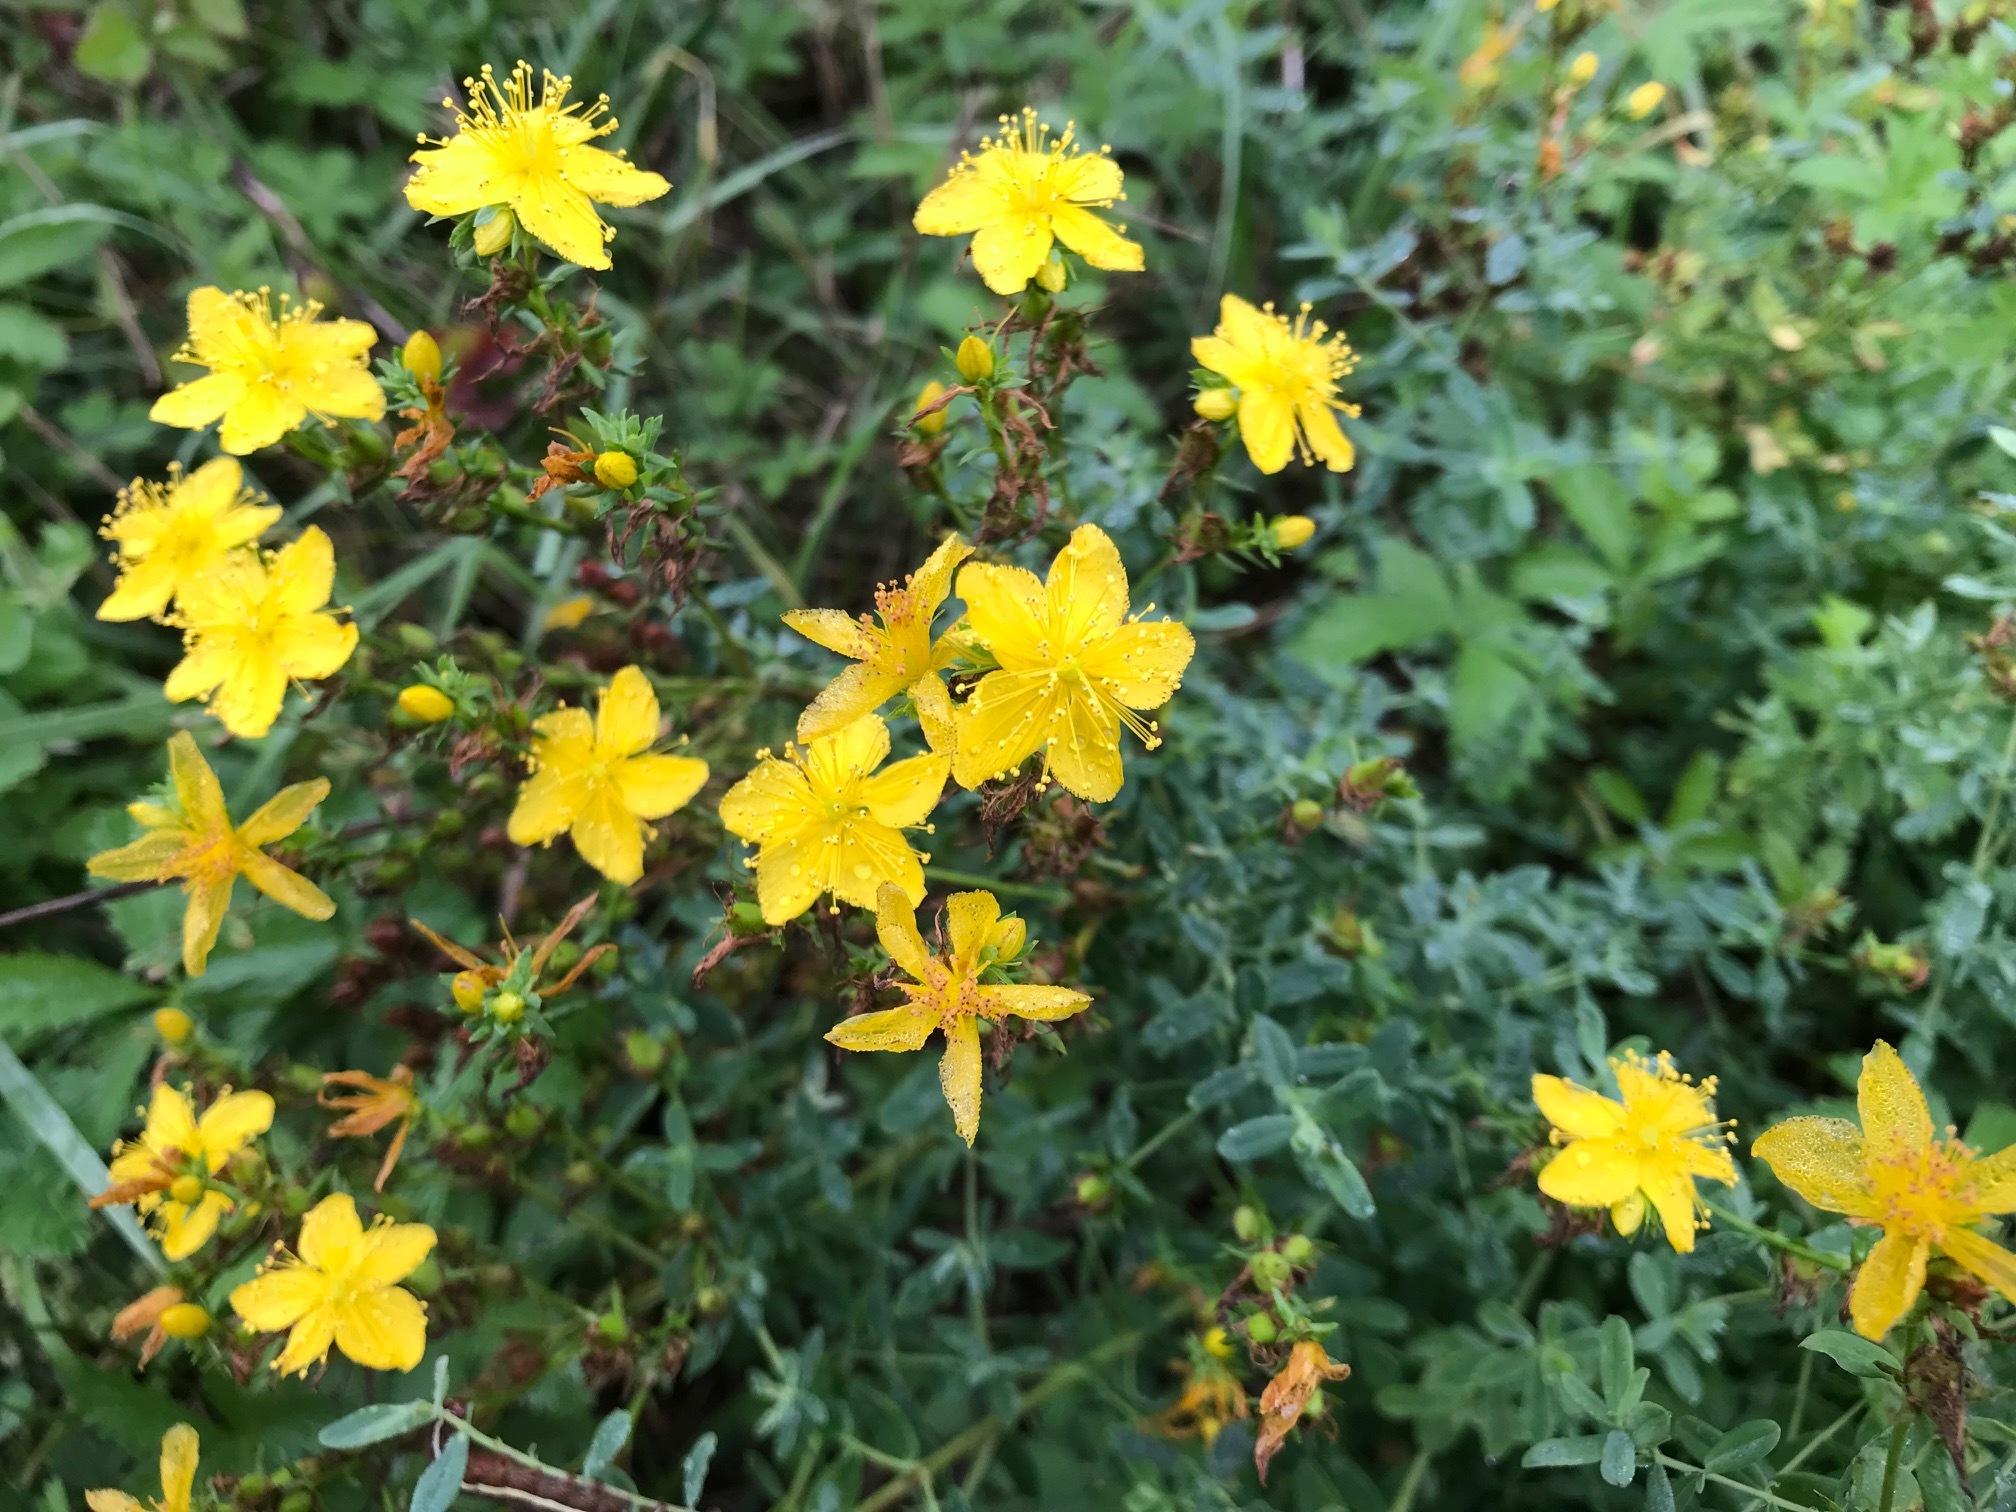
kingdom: Plantae
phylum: Tracheophyta
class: Magnoliopsida
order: Malpighiales
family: Hypericaceae
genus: Hypericum
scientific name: Hypericum perforatum
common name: Common st. johnswort
